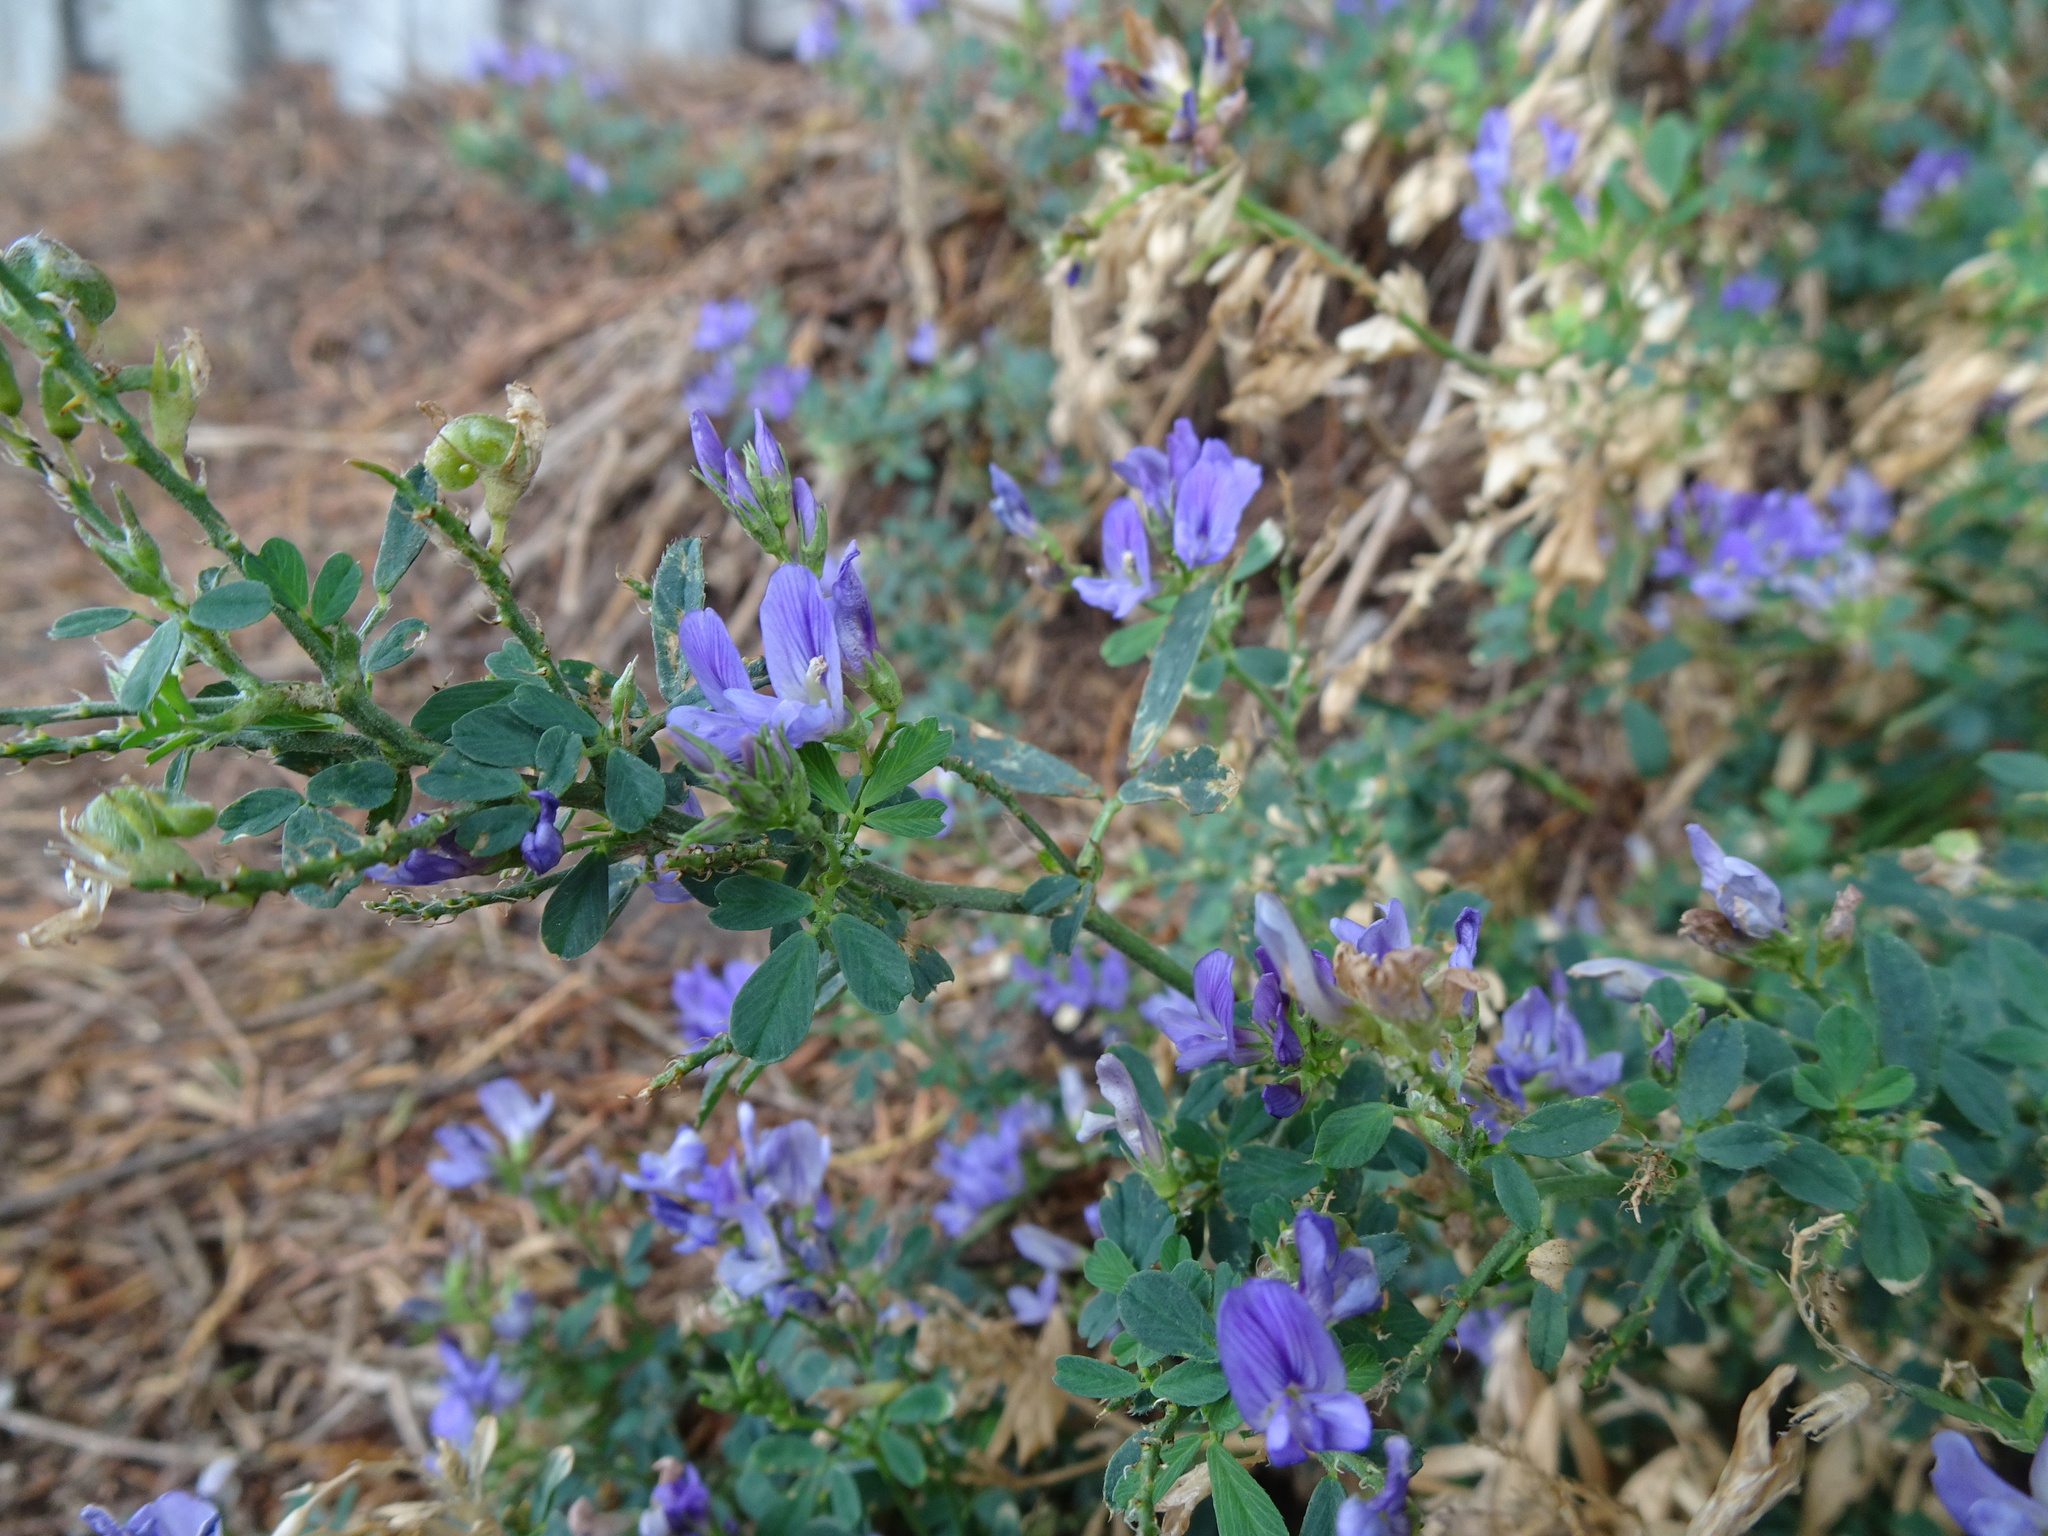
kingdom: Plantae
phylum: Tracheophyta
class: Magnoliopsida
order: Fabales
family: Fabaceae
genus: Medicago
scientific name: Medicago sativa
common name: Alfalfa
